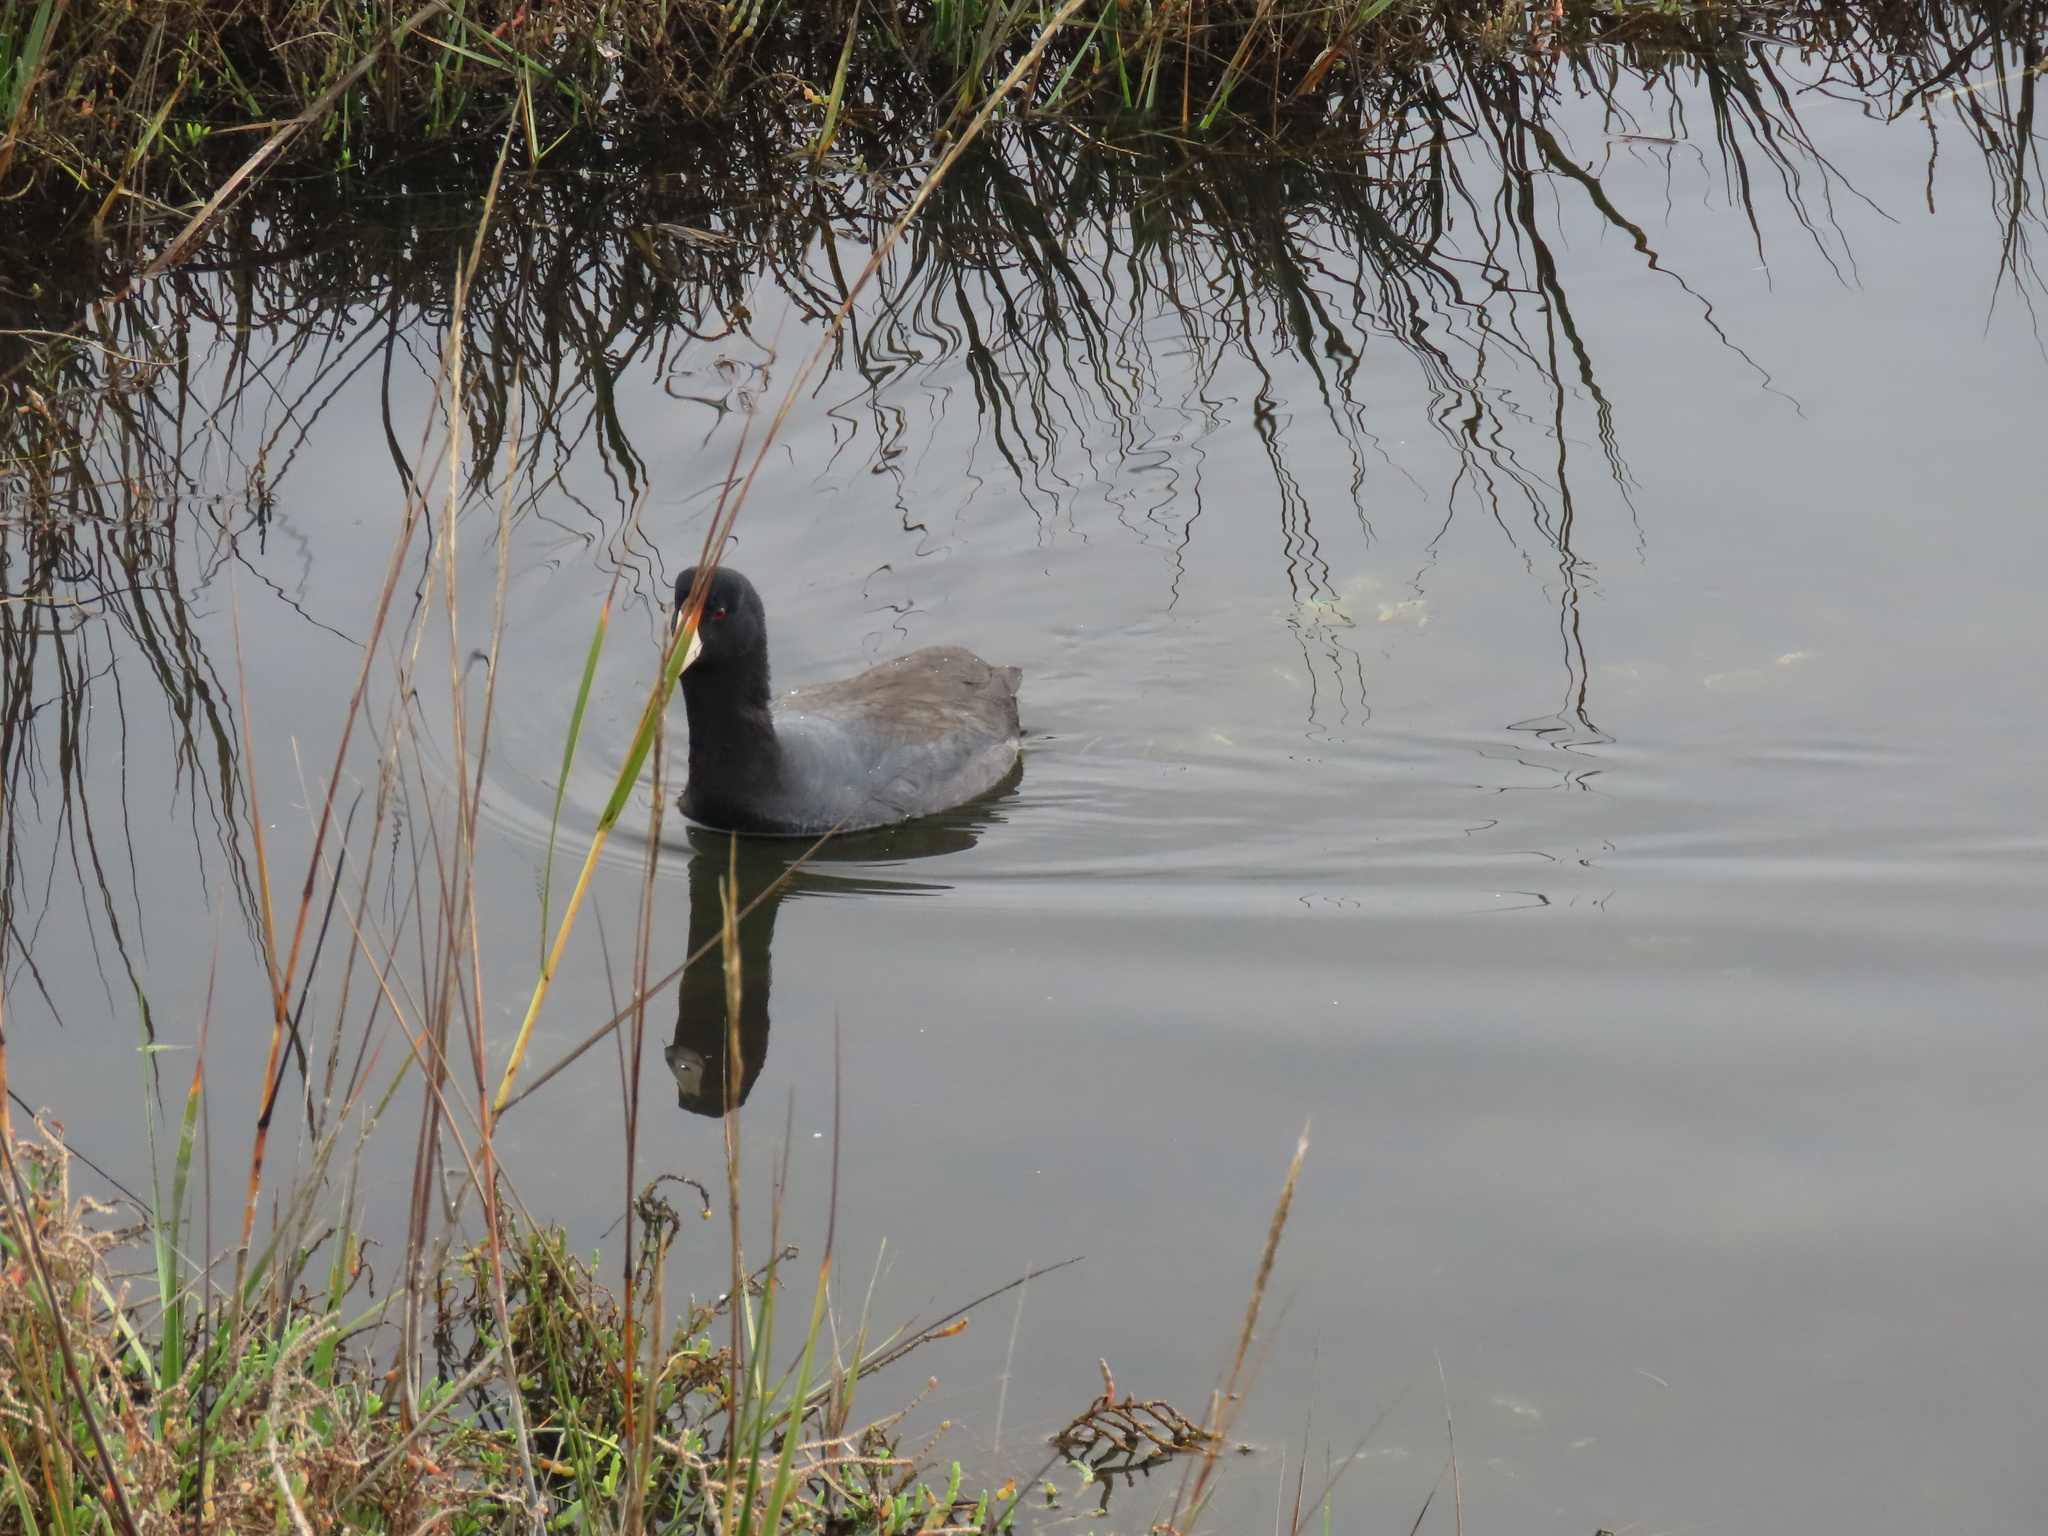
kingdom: Animalia
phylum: Chordata
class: Aves
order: Gruiformes
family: Rallidae
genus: Fulica
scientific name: Fulica americana
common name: American coot
